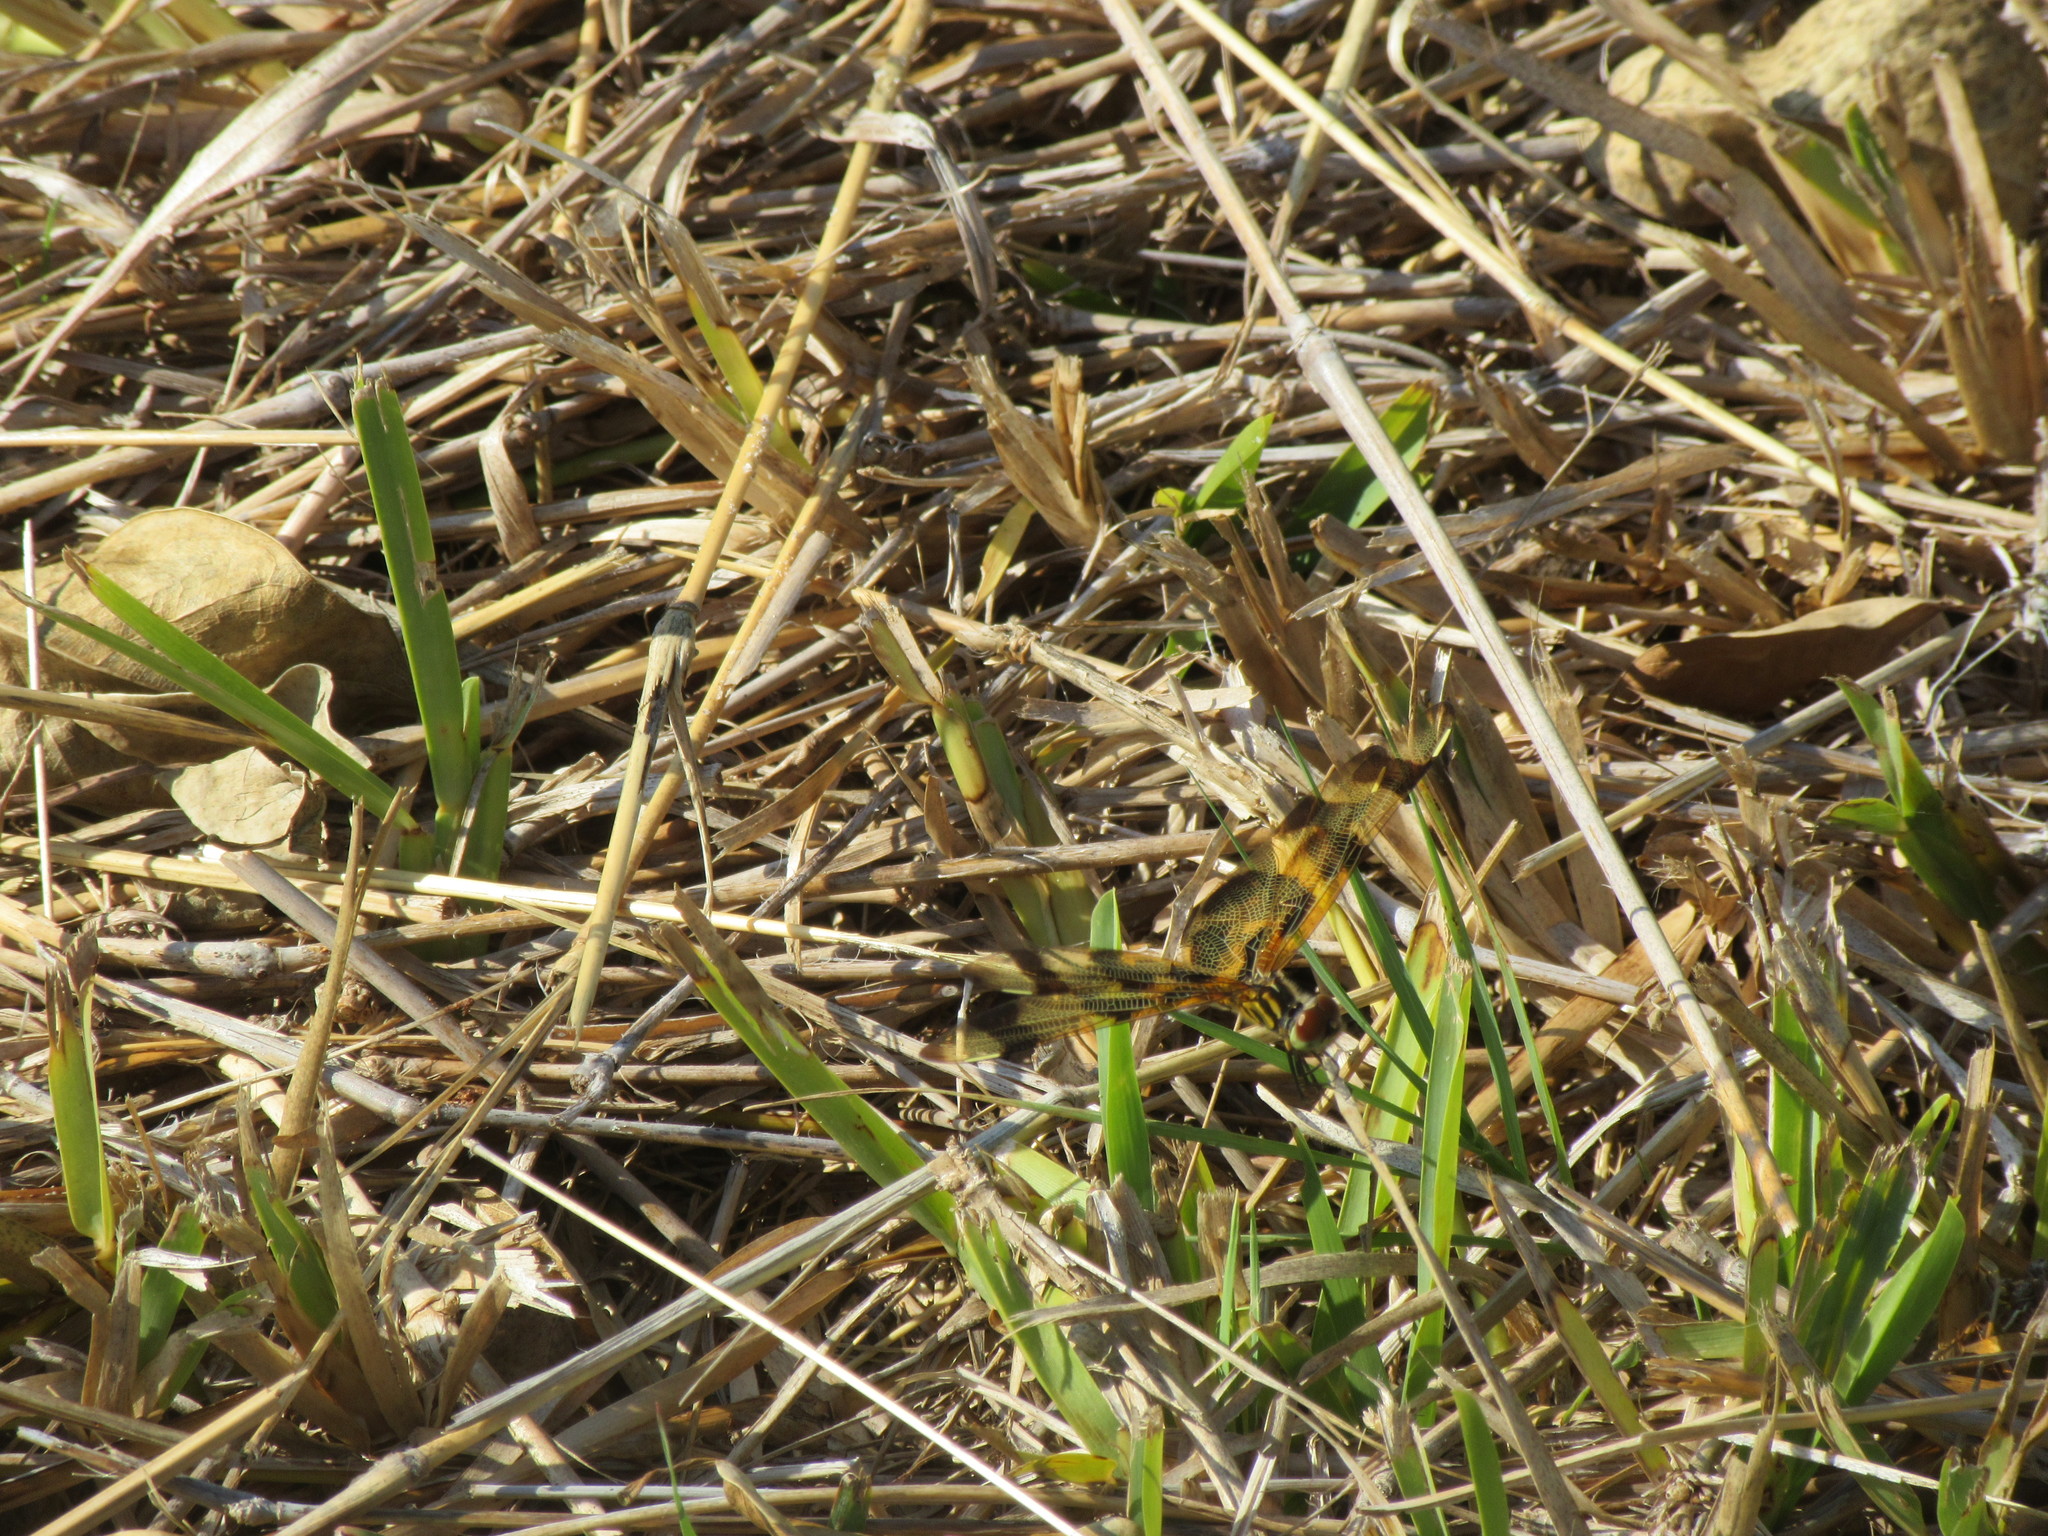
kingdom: Animalia
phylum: Arthropoda
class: Insecta
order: Odonata
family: Libellulidae
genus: Celithemis
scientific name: Celithemis eponina
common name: Halloween pennant
